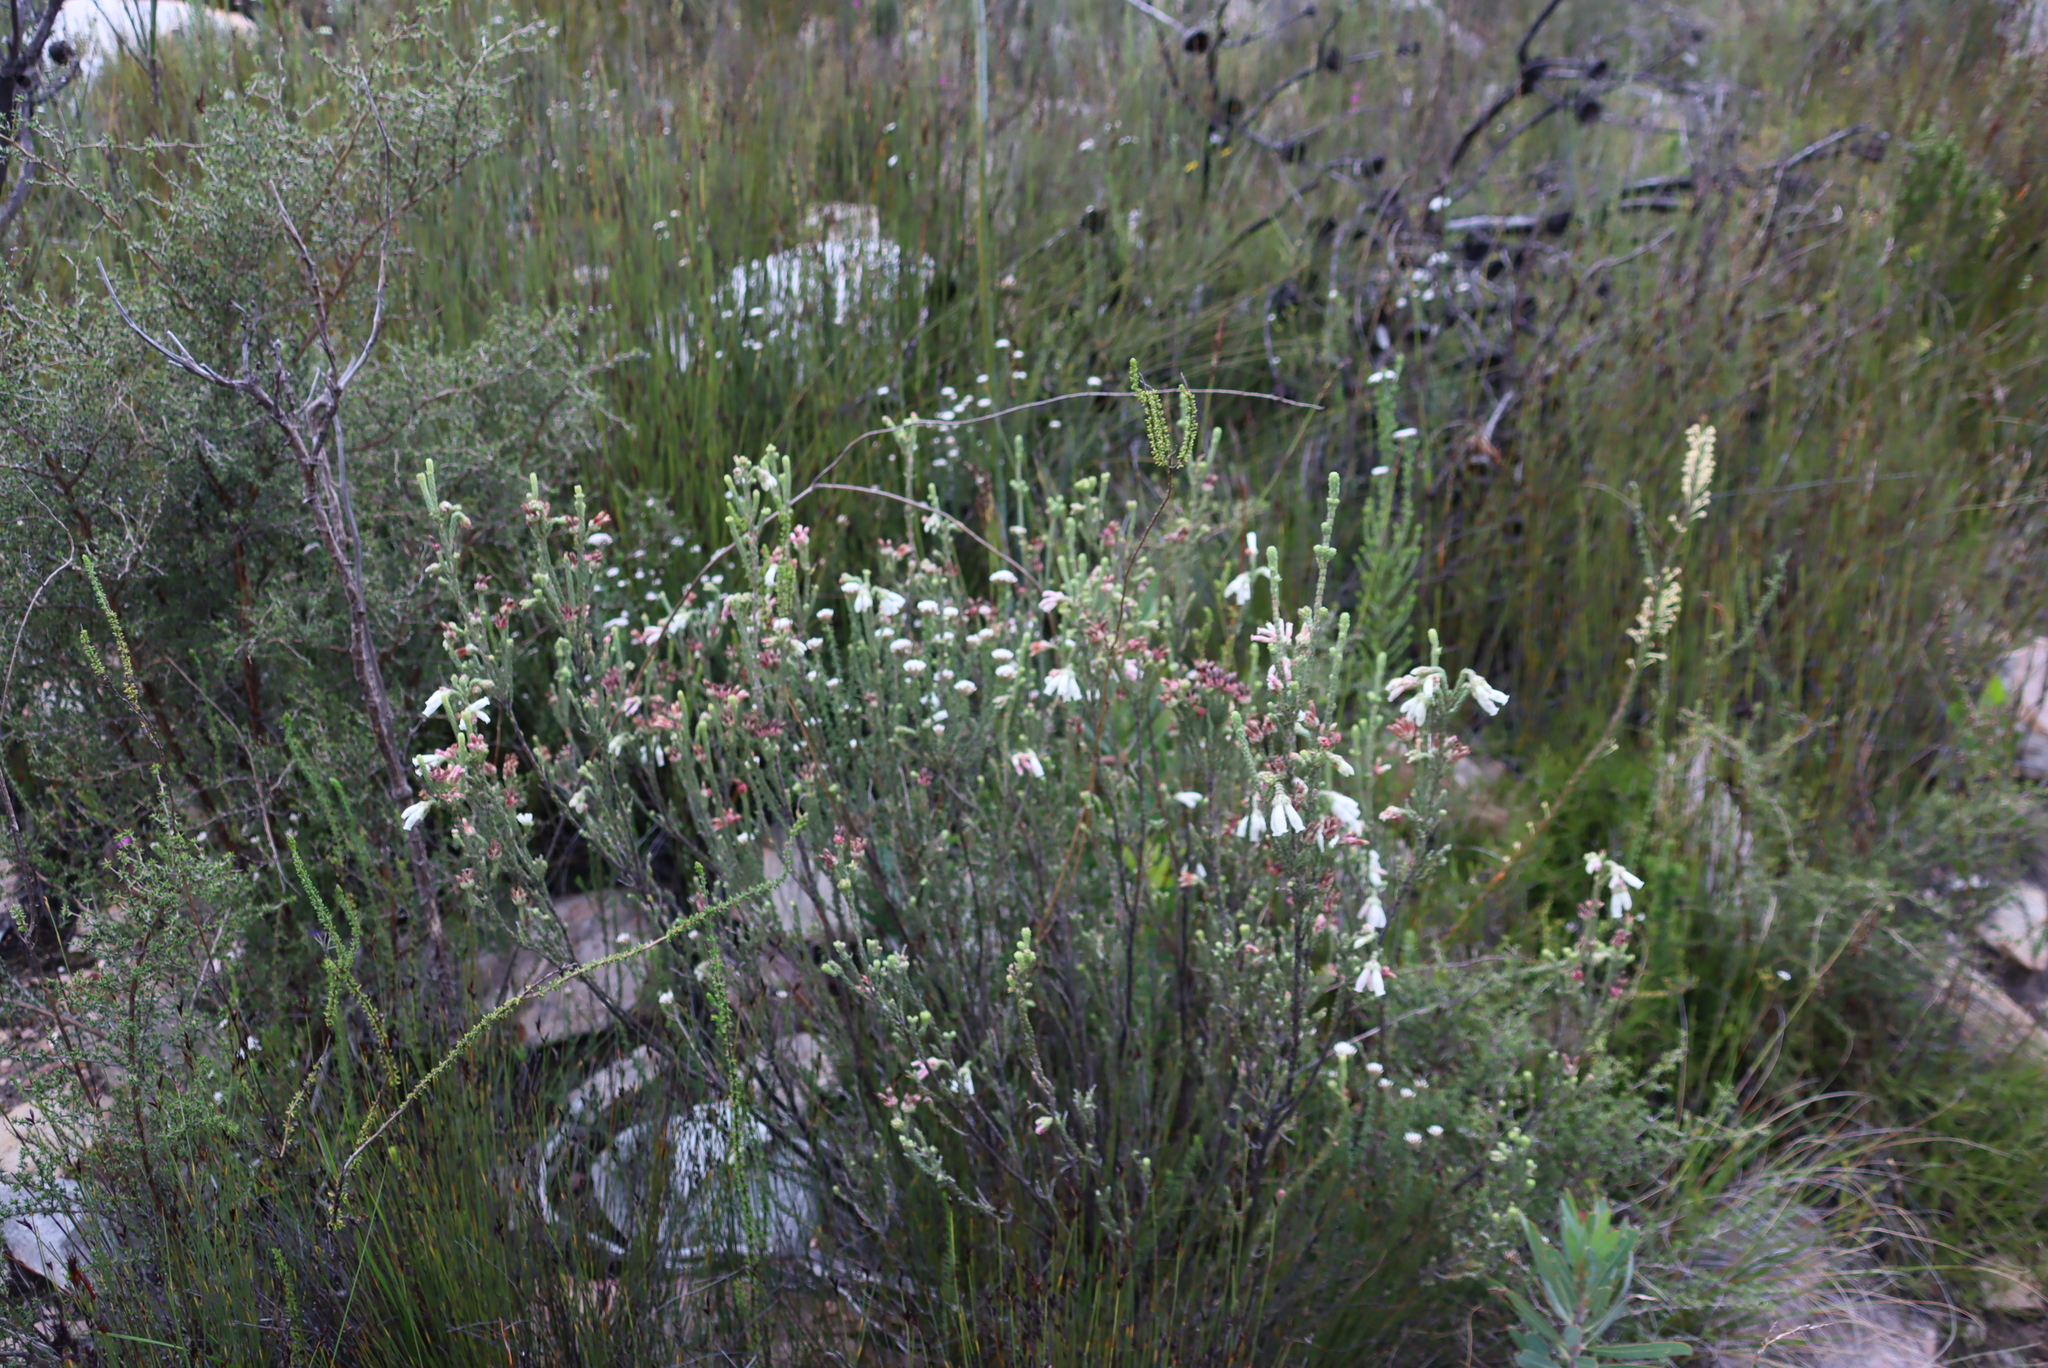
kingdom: Plantae
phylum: Tracheophyta
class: Magnoliopsida
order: Ericales
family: Ericaceae
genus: Erica
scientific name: Erica pectinifolia
